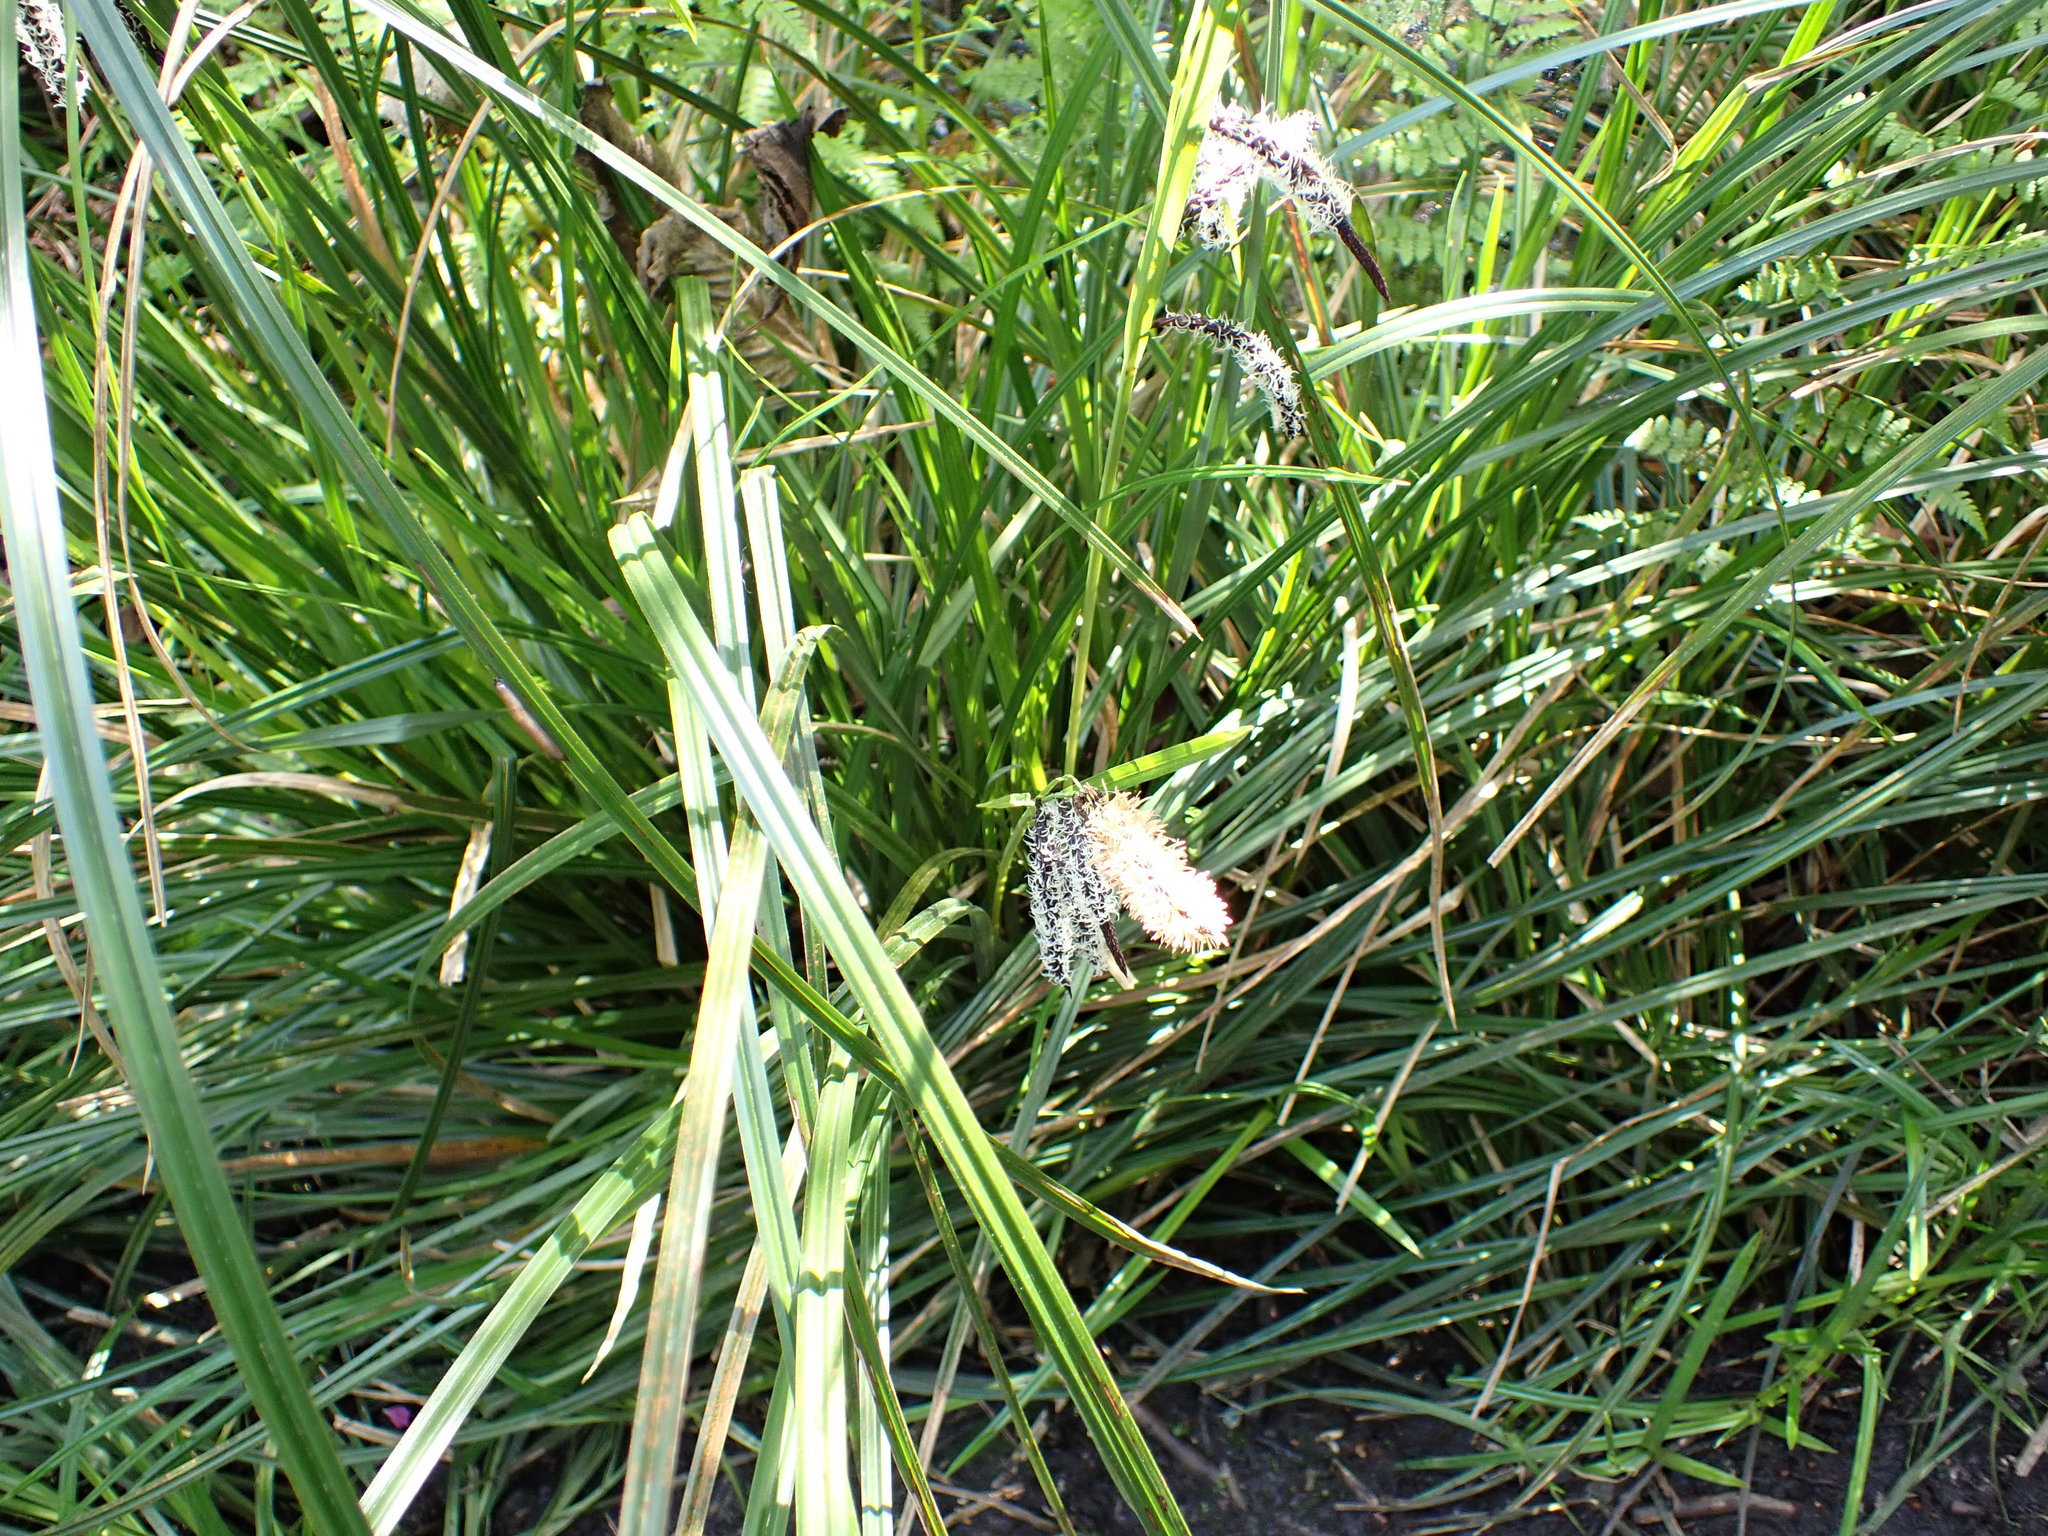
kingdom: Plantae
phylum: Tracheophyta
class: Liliopsida
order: Poales
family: Cyperaceae
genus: Carex
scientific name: Carex obnupta
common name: Slough sedge
